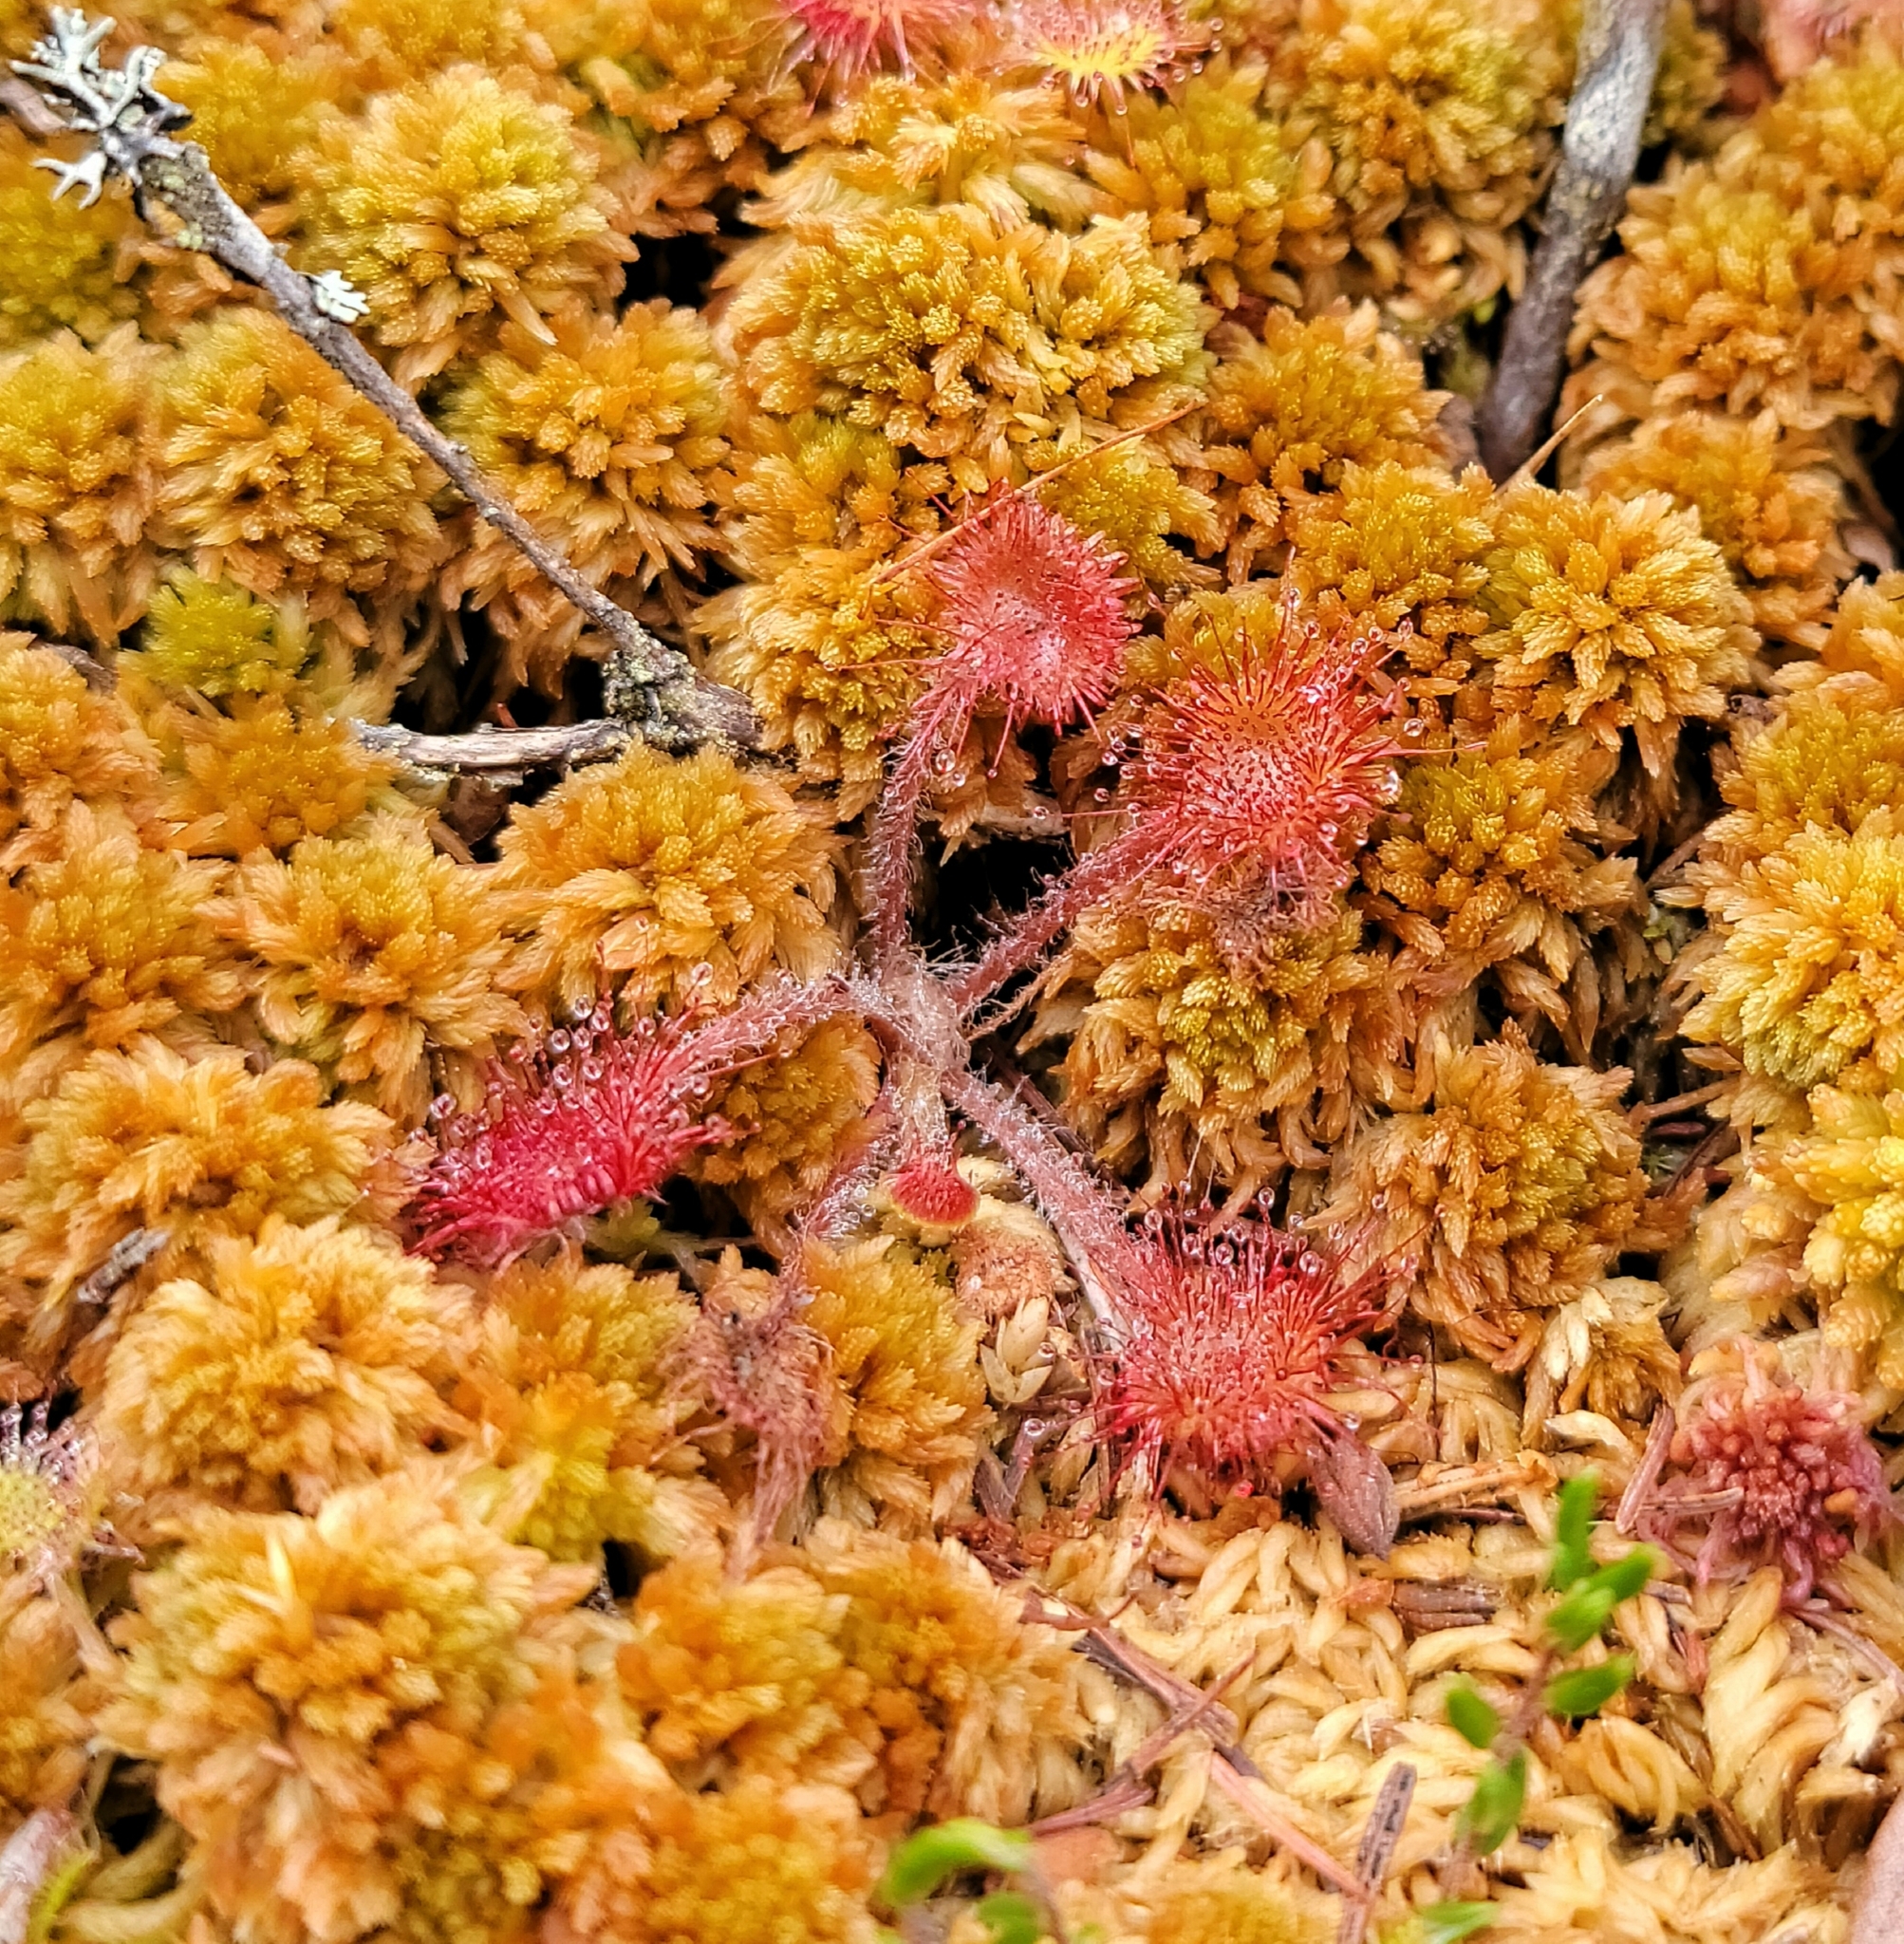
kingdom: Plantae
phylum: Tracheophyta
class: Magnoliopsida
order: Caryophyllales
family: Droseraceae
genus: Drosera
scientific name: Drosera rotundifolia
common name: Round-leaved sundew
